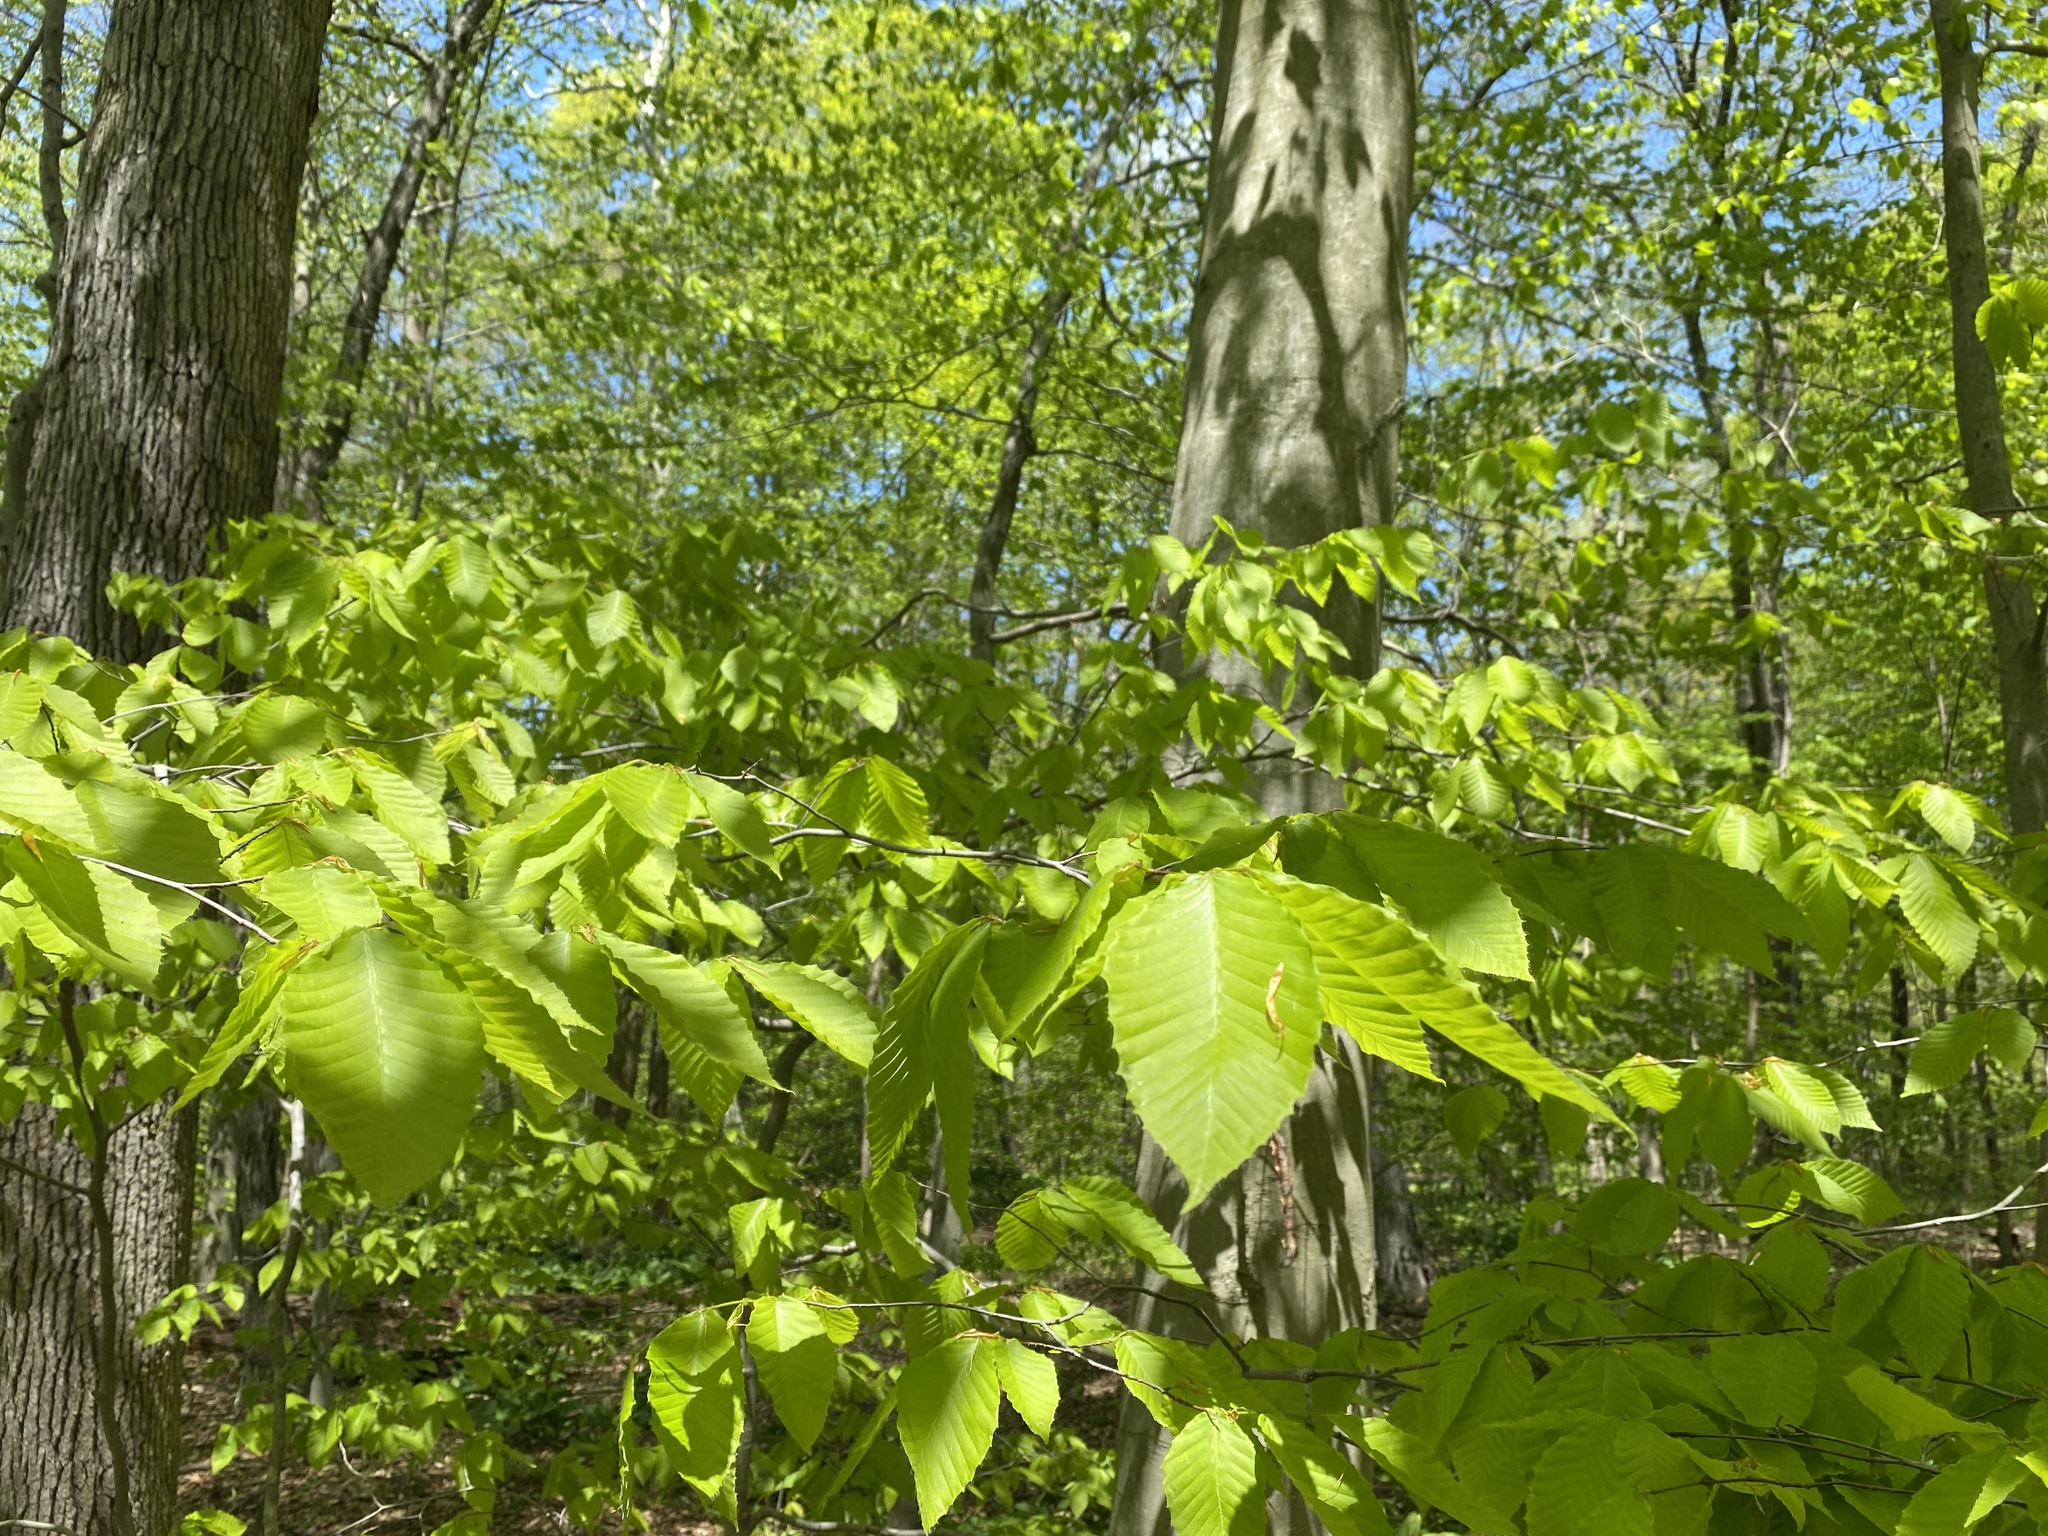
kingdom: Plantae
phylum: Tracheophyta
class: Magnoliopsida
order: Fagales
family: Fagaceae
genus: Fagus
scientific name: Fagus grandifolia
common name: American beech
